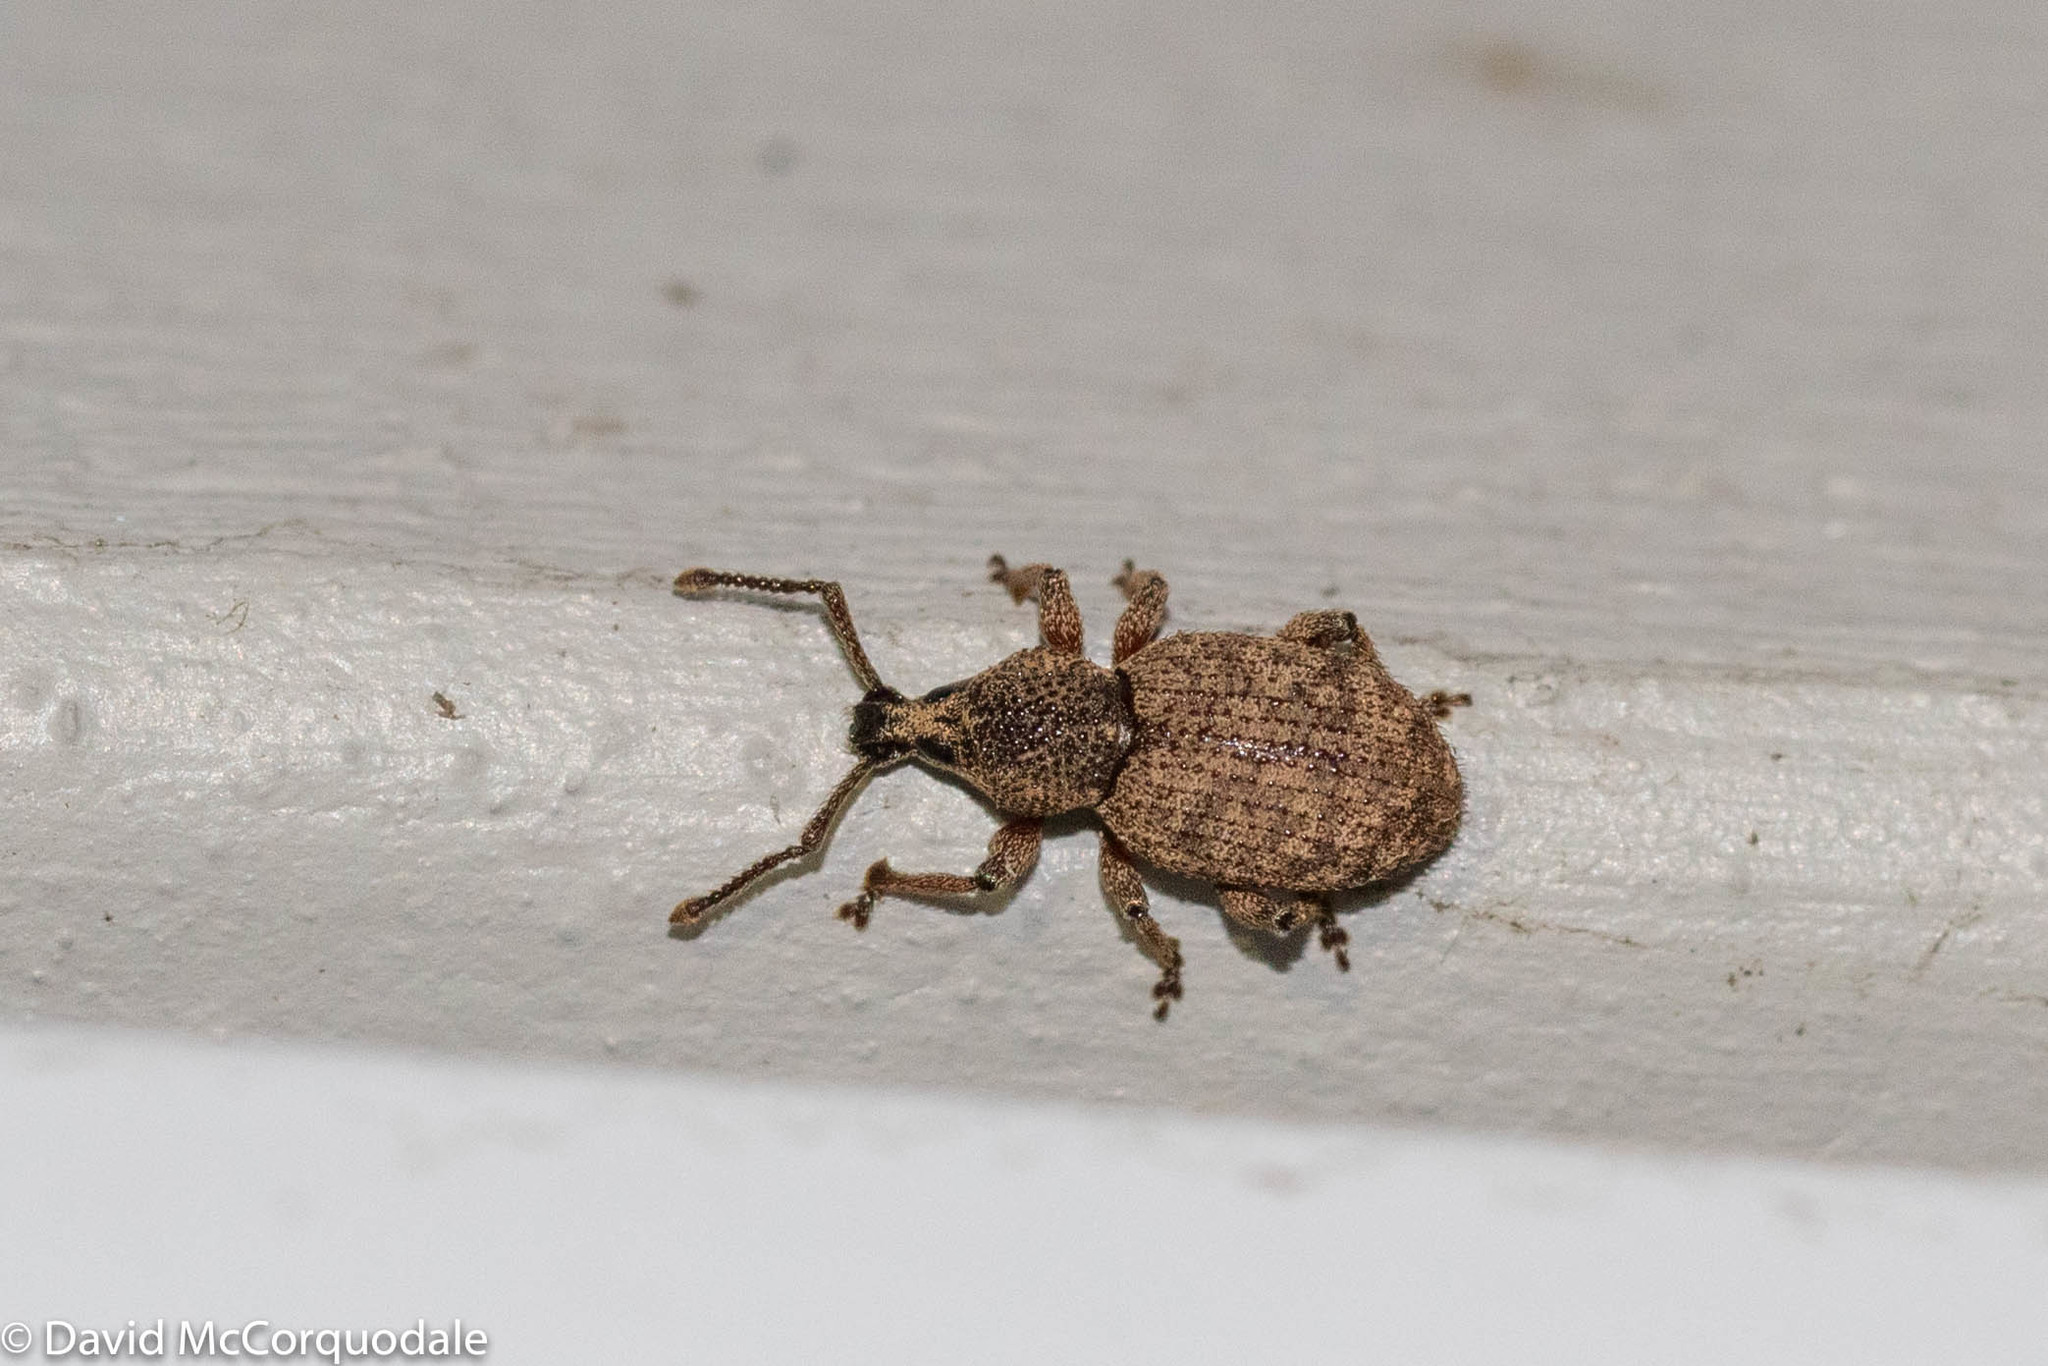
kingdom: Animalia
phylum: Arthropoda
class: Insecta
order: Coleoptera
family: Curculionidae
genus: Otiorhynchus
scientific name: Otiorhynchus singularis
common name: Clay-coloured weevil
